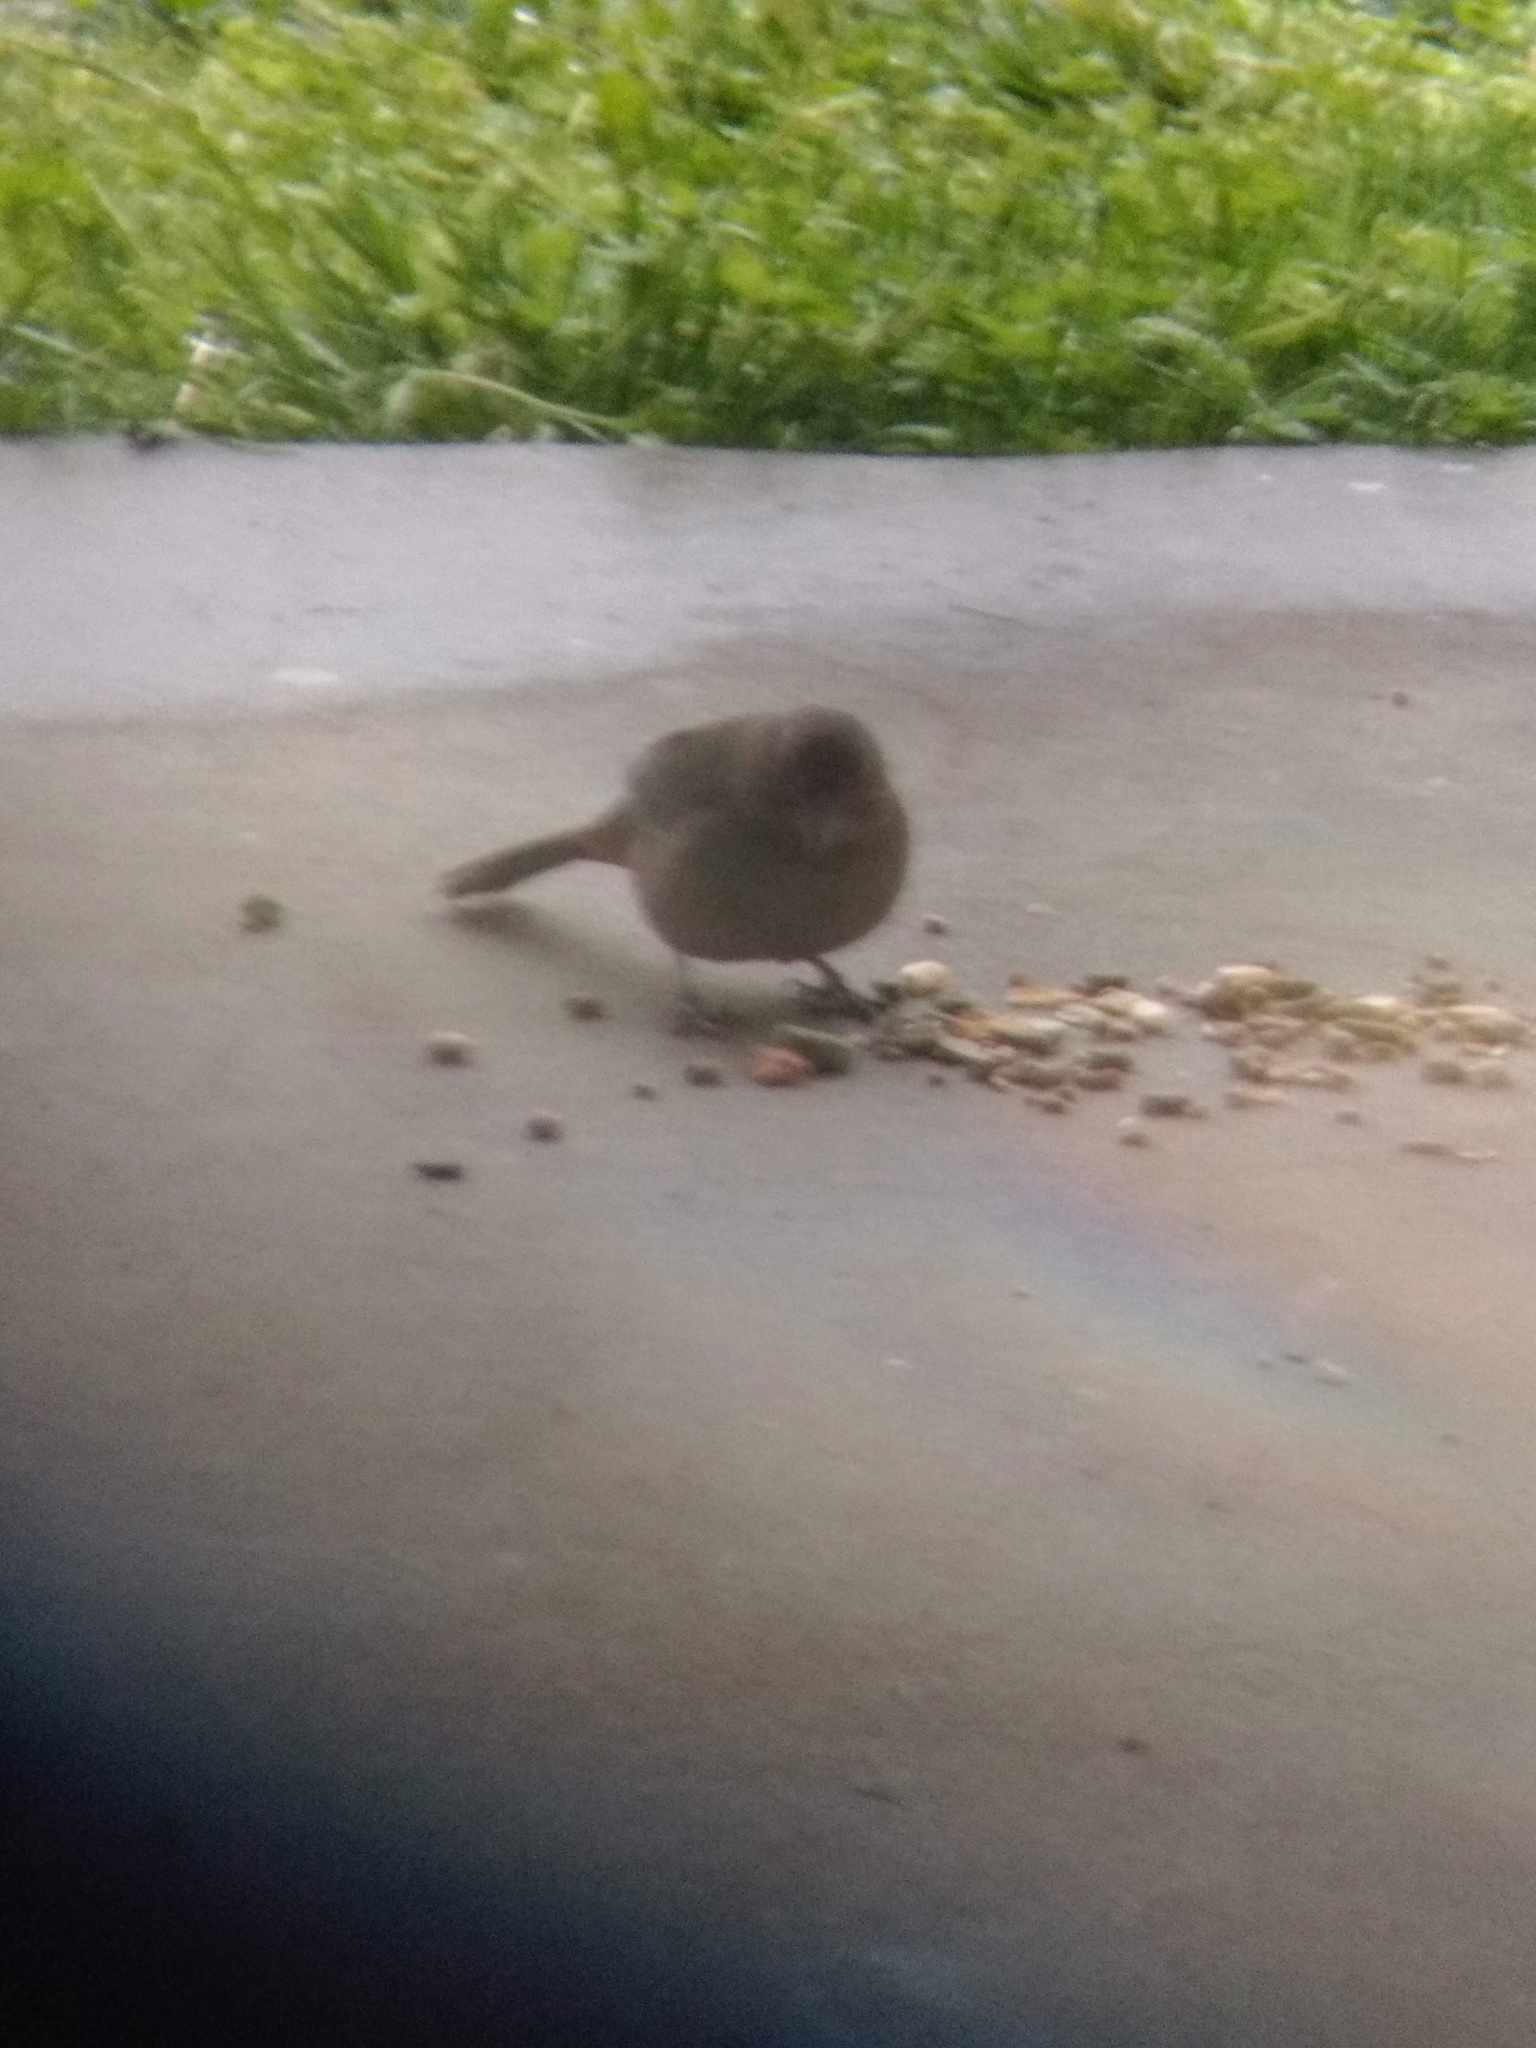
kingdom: Animalia
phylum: Chordata
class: Aves
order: Passeriformes
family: Passerellidae
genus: Melozone
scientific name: Melozone crissalis
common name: California towhee
